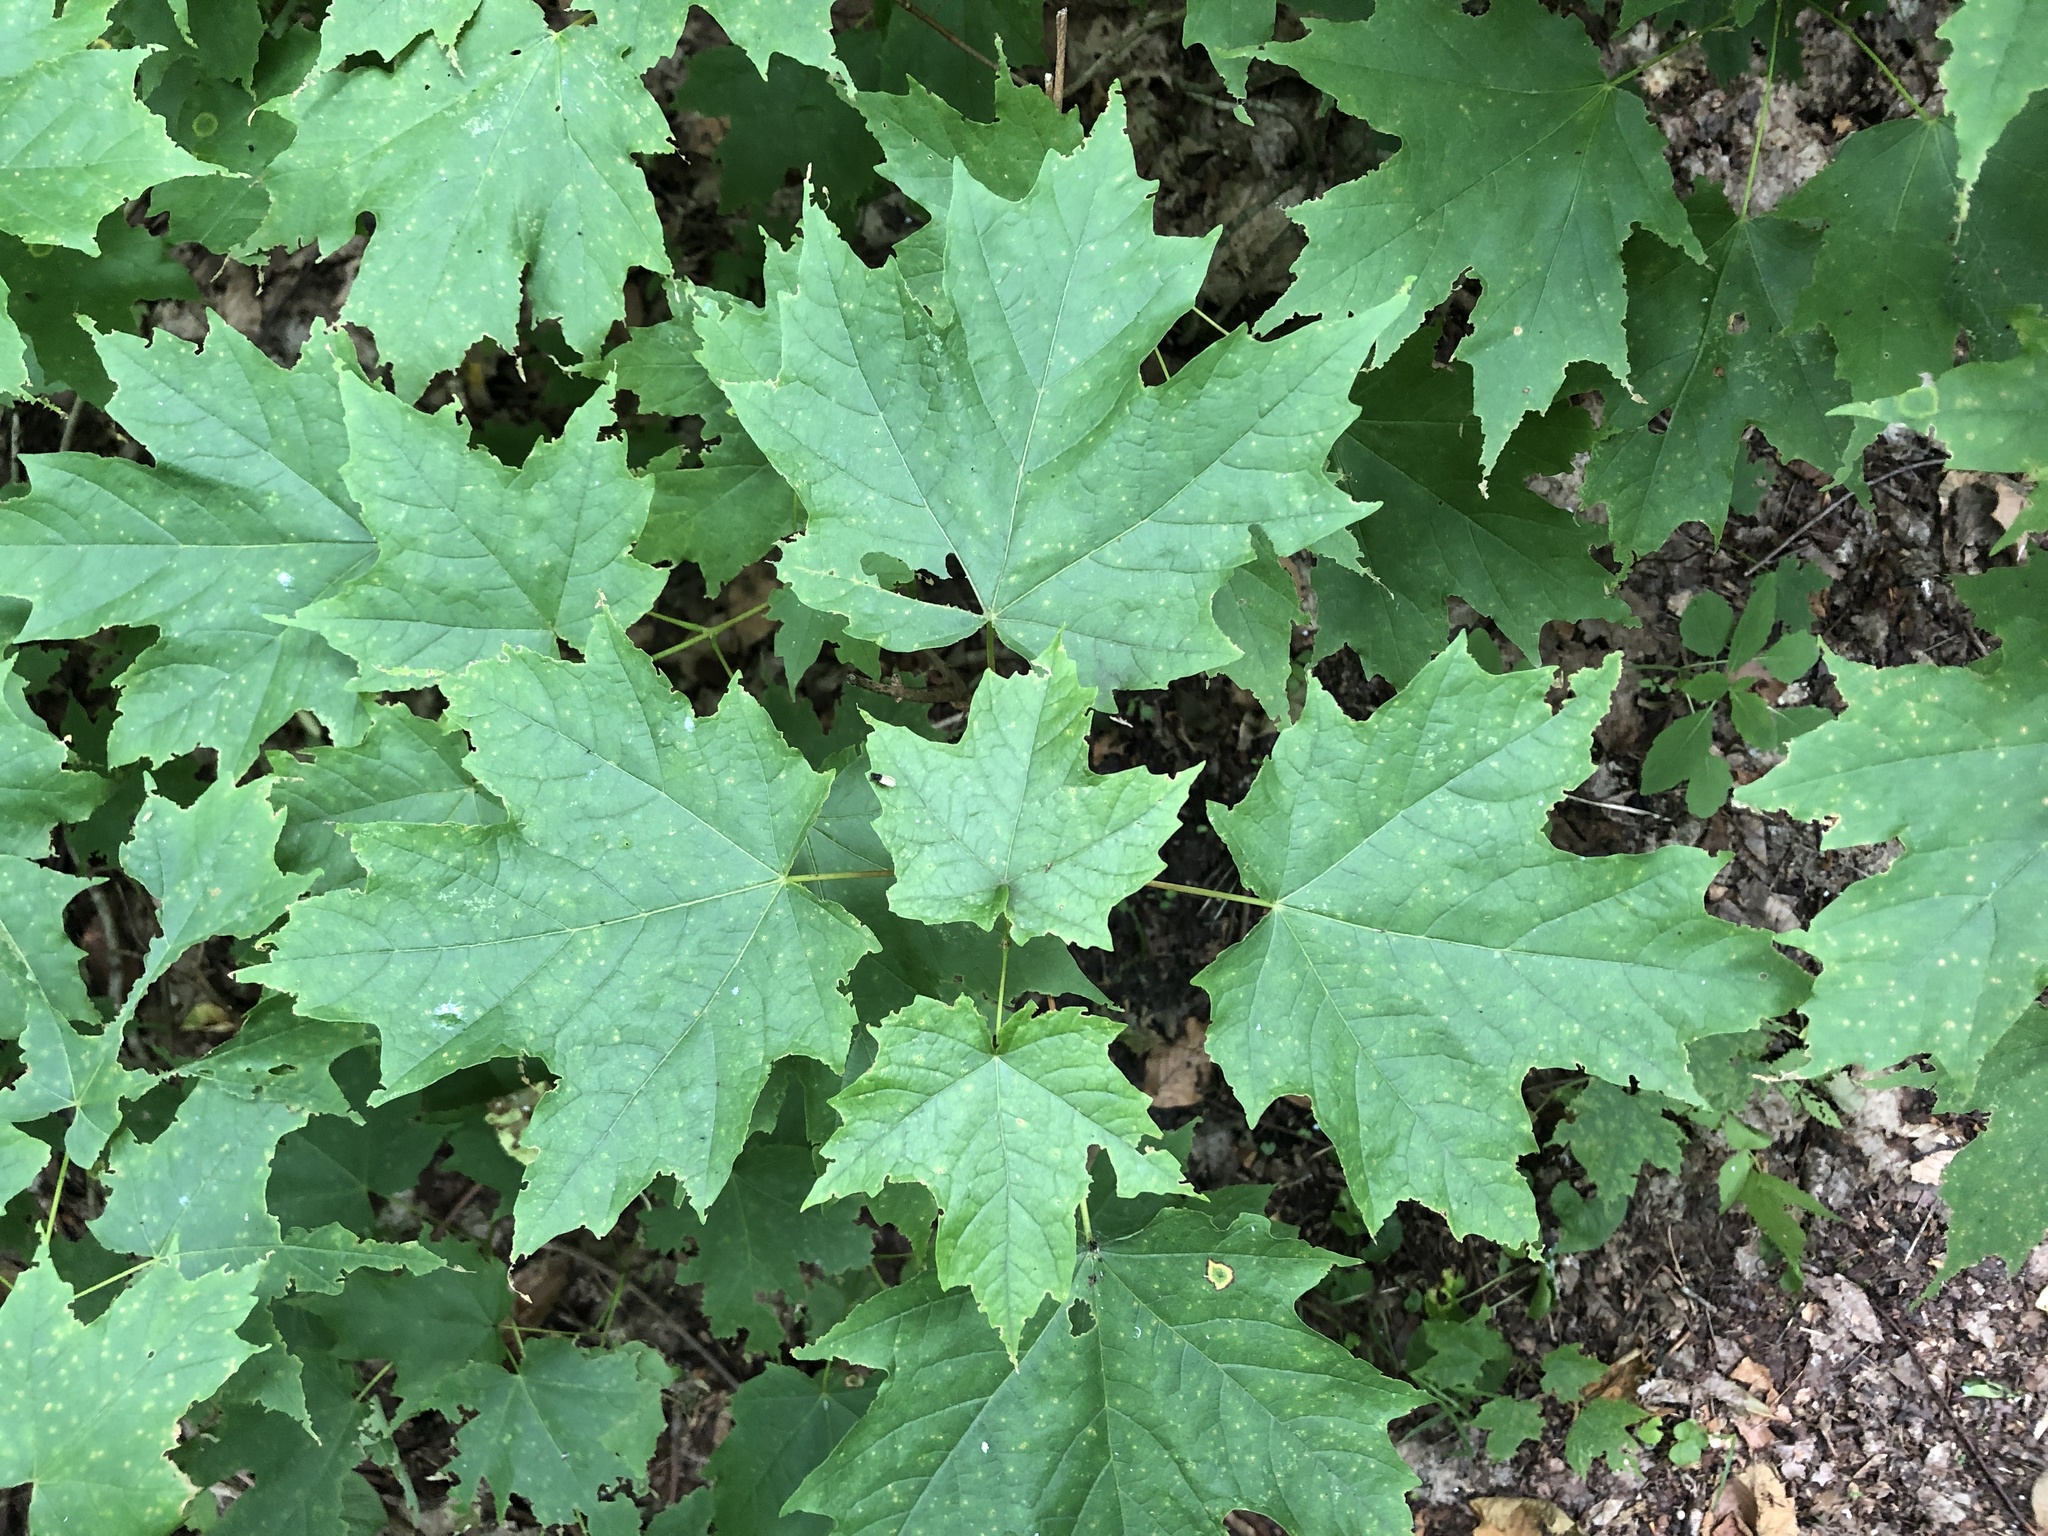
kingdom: Plantae
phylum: Tracheophyta
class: Magnoliopsida
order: Sapindales
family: Sapindaceae
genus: Acer
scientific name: Acer saccharum
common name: Sugar maple
